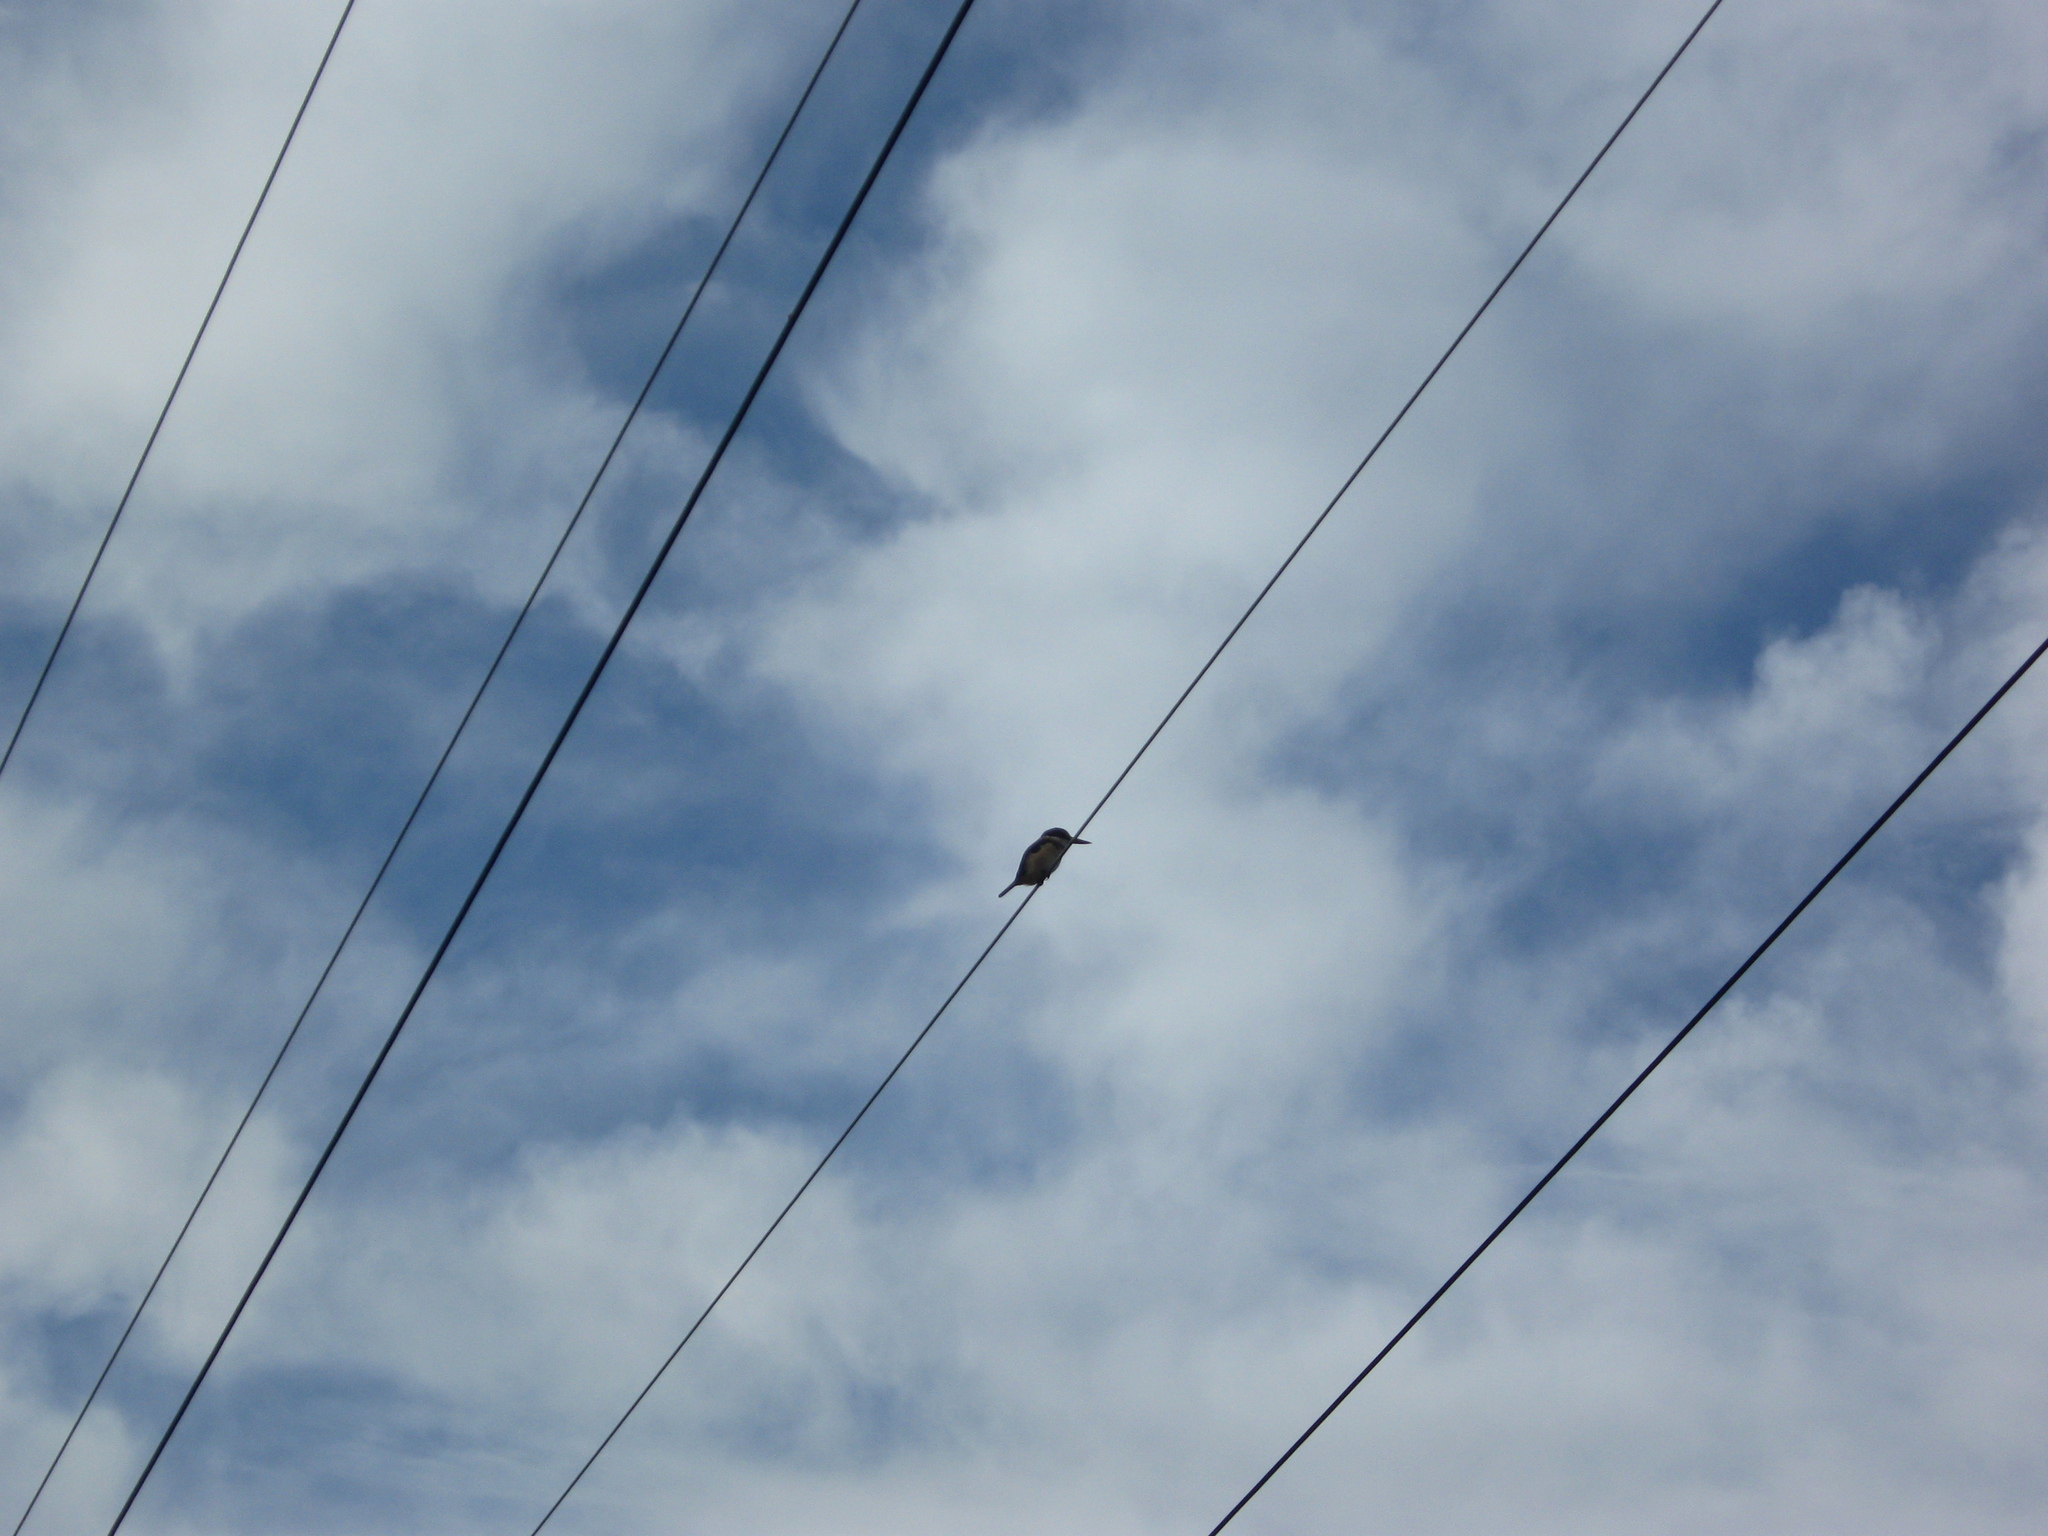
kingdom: Animalia
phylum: Chordata
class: Aves
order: Coraciiformes
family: Alcedinidae
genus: Todiramphus
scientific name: Todiramphus sanctus
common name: Sacred kingfisher
